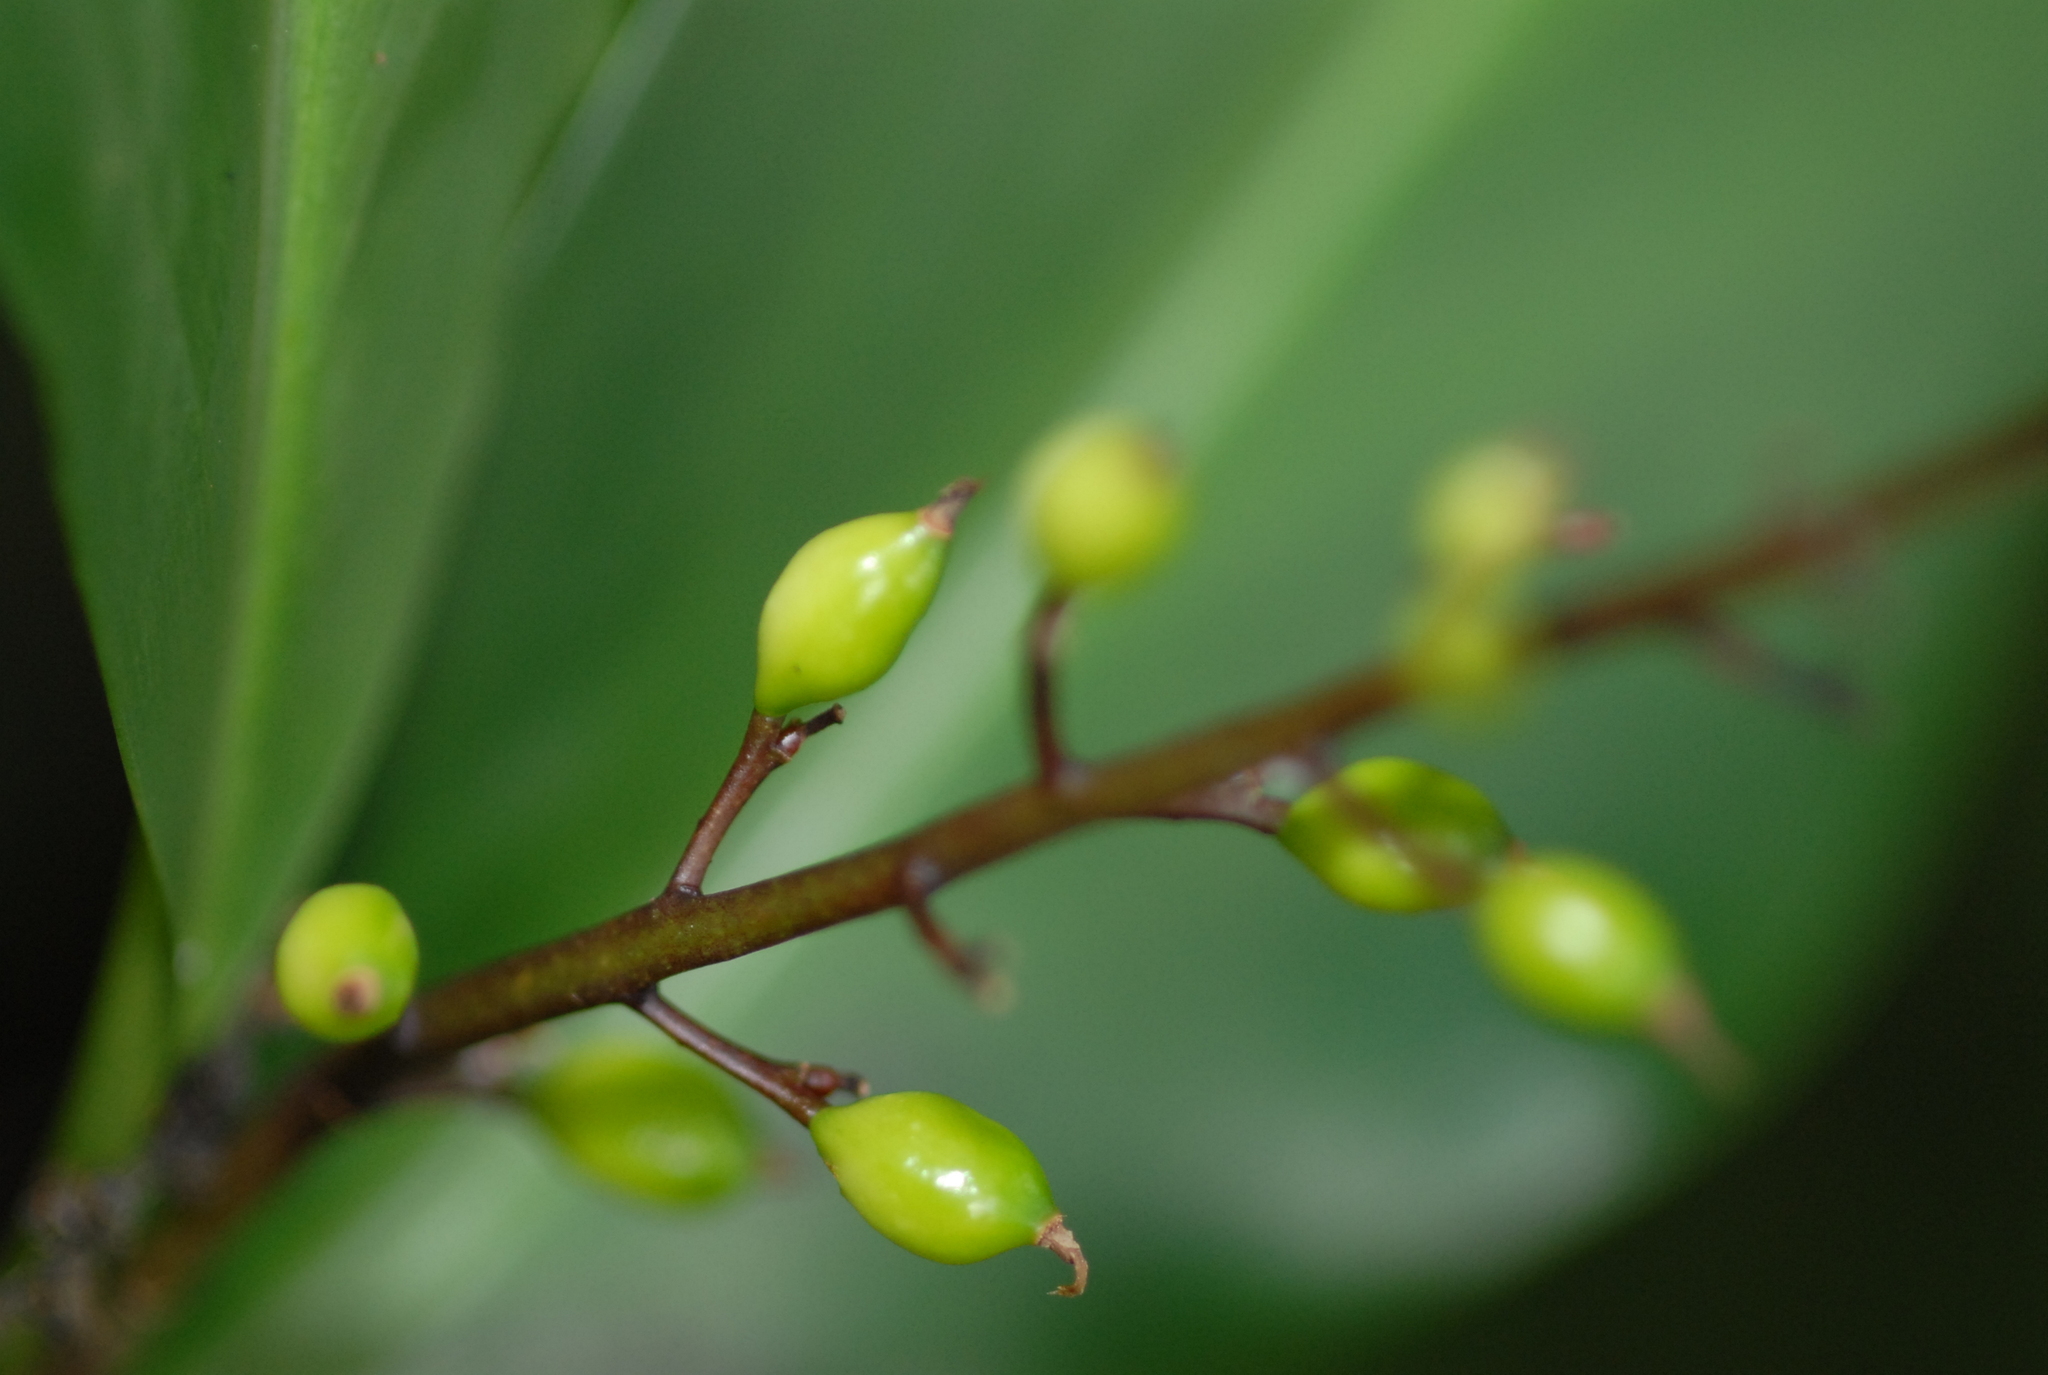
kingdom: Plantae
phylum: Tracheophyta
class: Liliopsida
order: Zingiberales
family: Zingiberaceae
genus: Alpinia
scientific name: Alpinia intermedia
